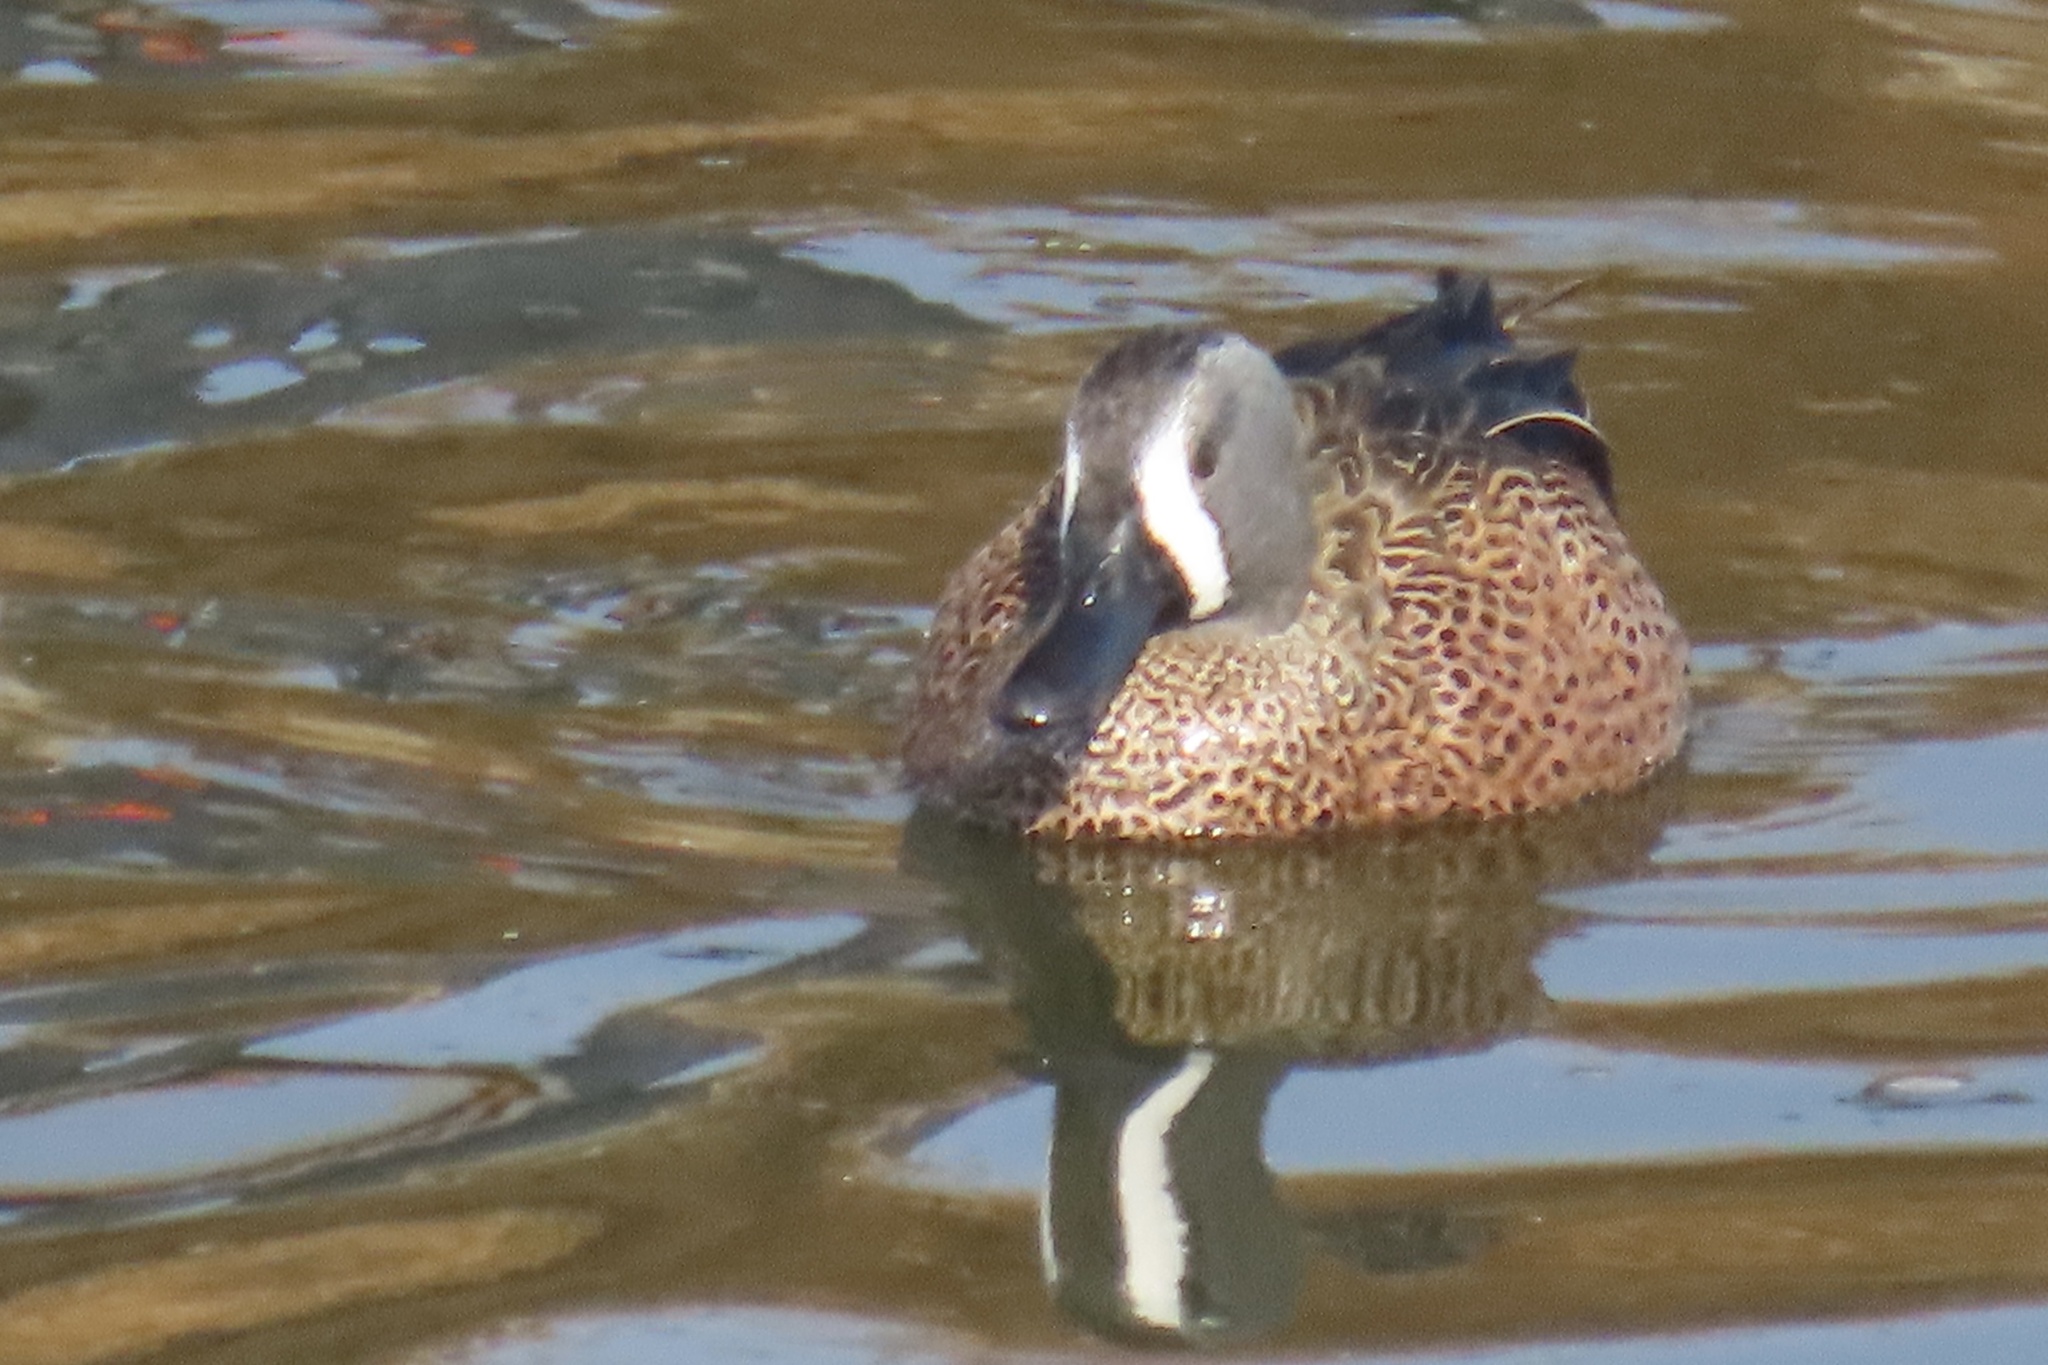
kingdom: Animalia
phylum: Chordata
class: Aves
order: Anseriformes
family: Anatidae
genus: Spatula
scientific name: Spatula discors
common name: Blue-winged teal
